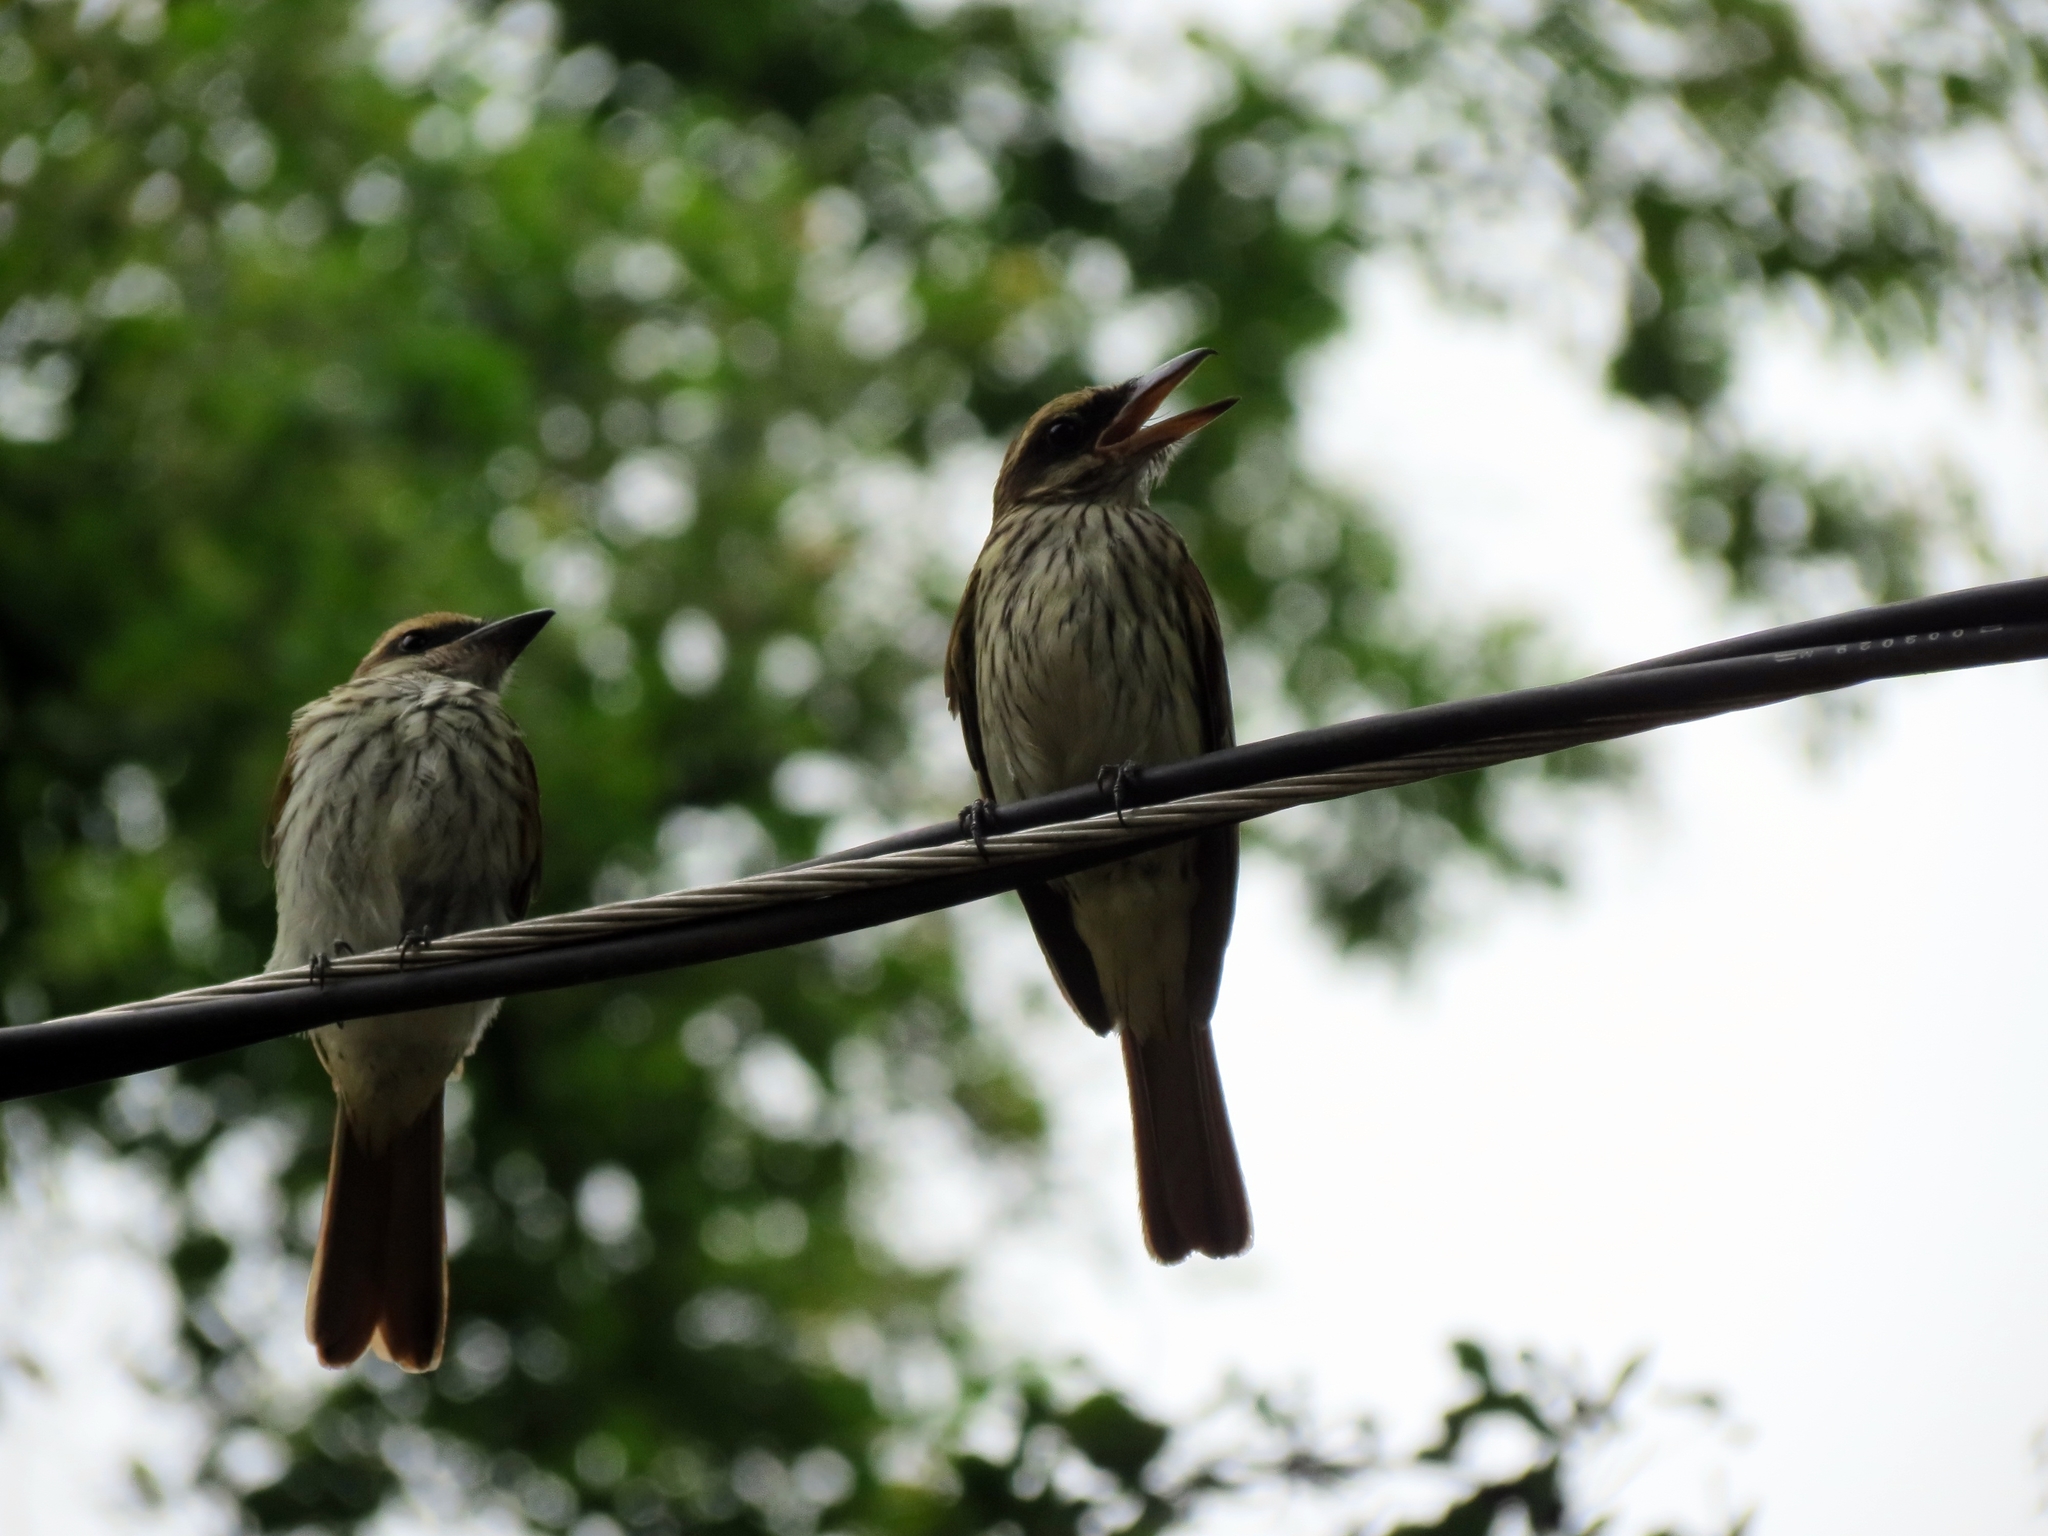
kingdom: Animalia
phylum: Chordata
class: Aves
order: Passeriformes
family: Tyrannidae
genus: Myiodynastes
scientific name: Myiodynastes maculatus
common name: Streaked flycatcher
